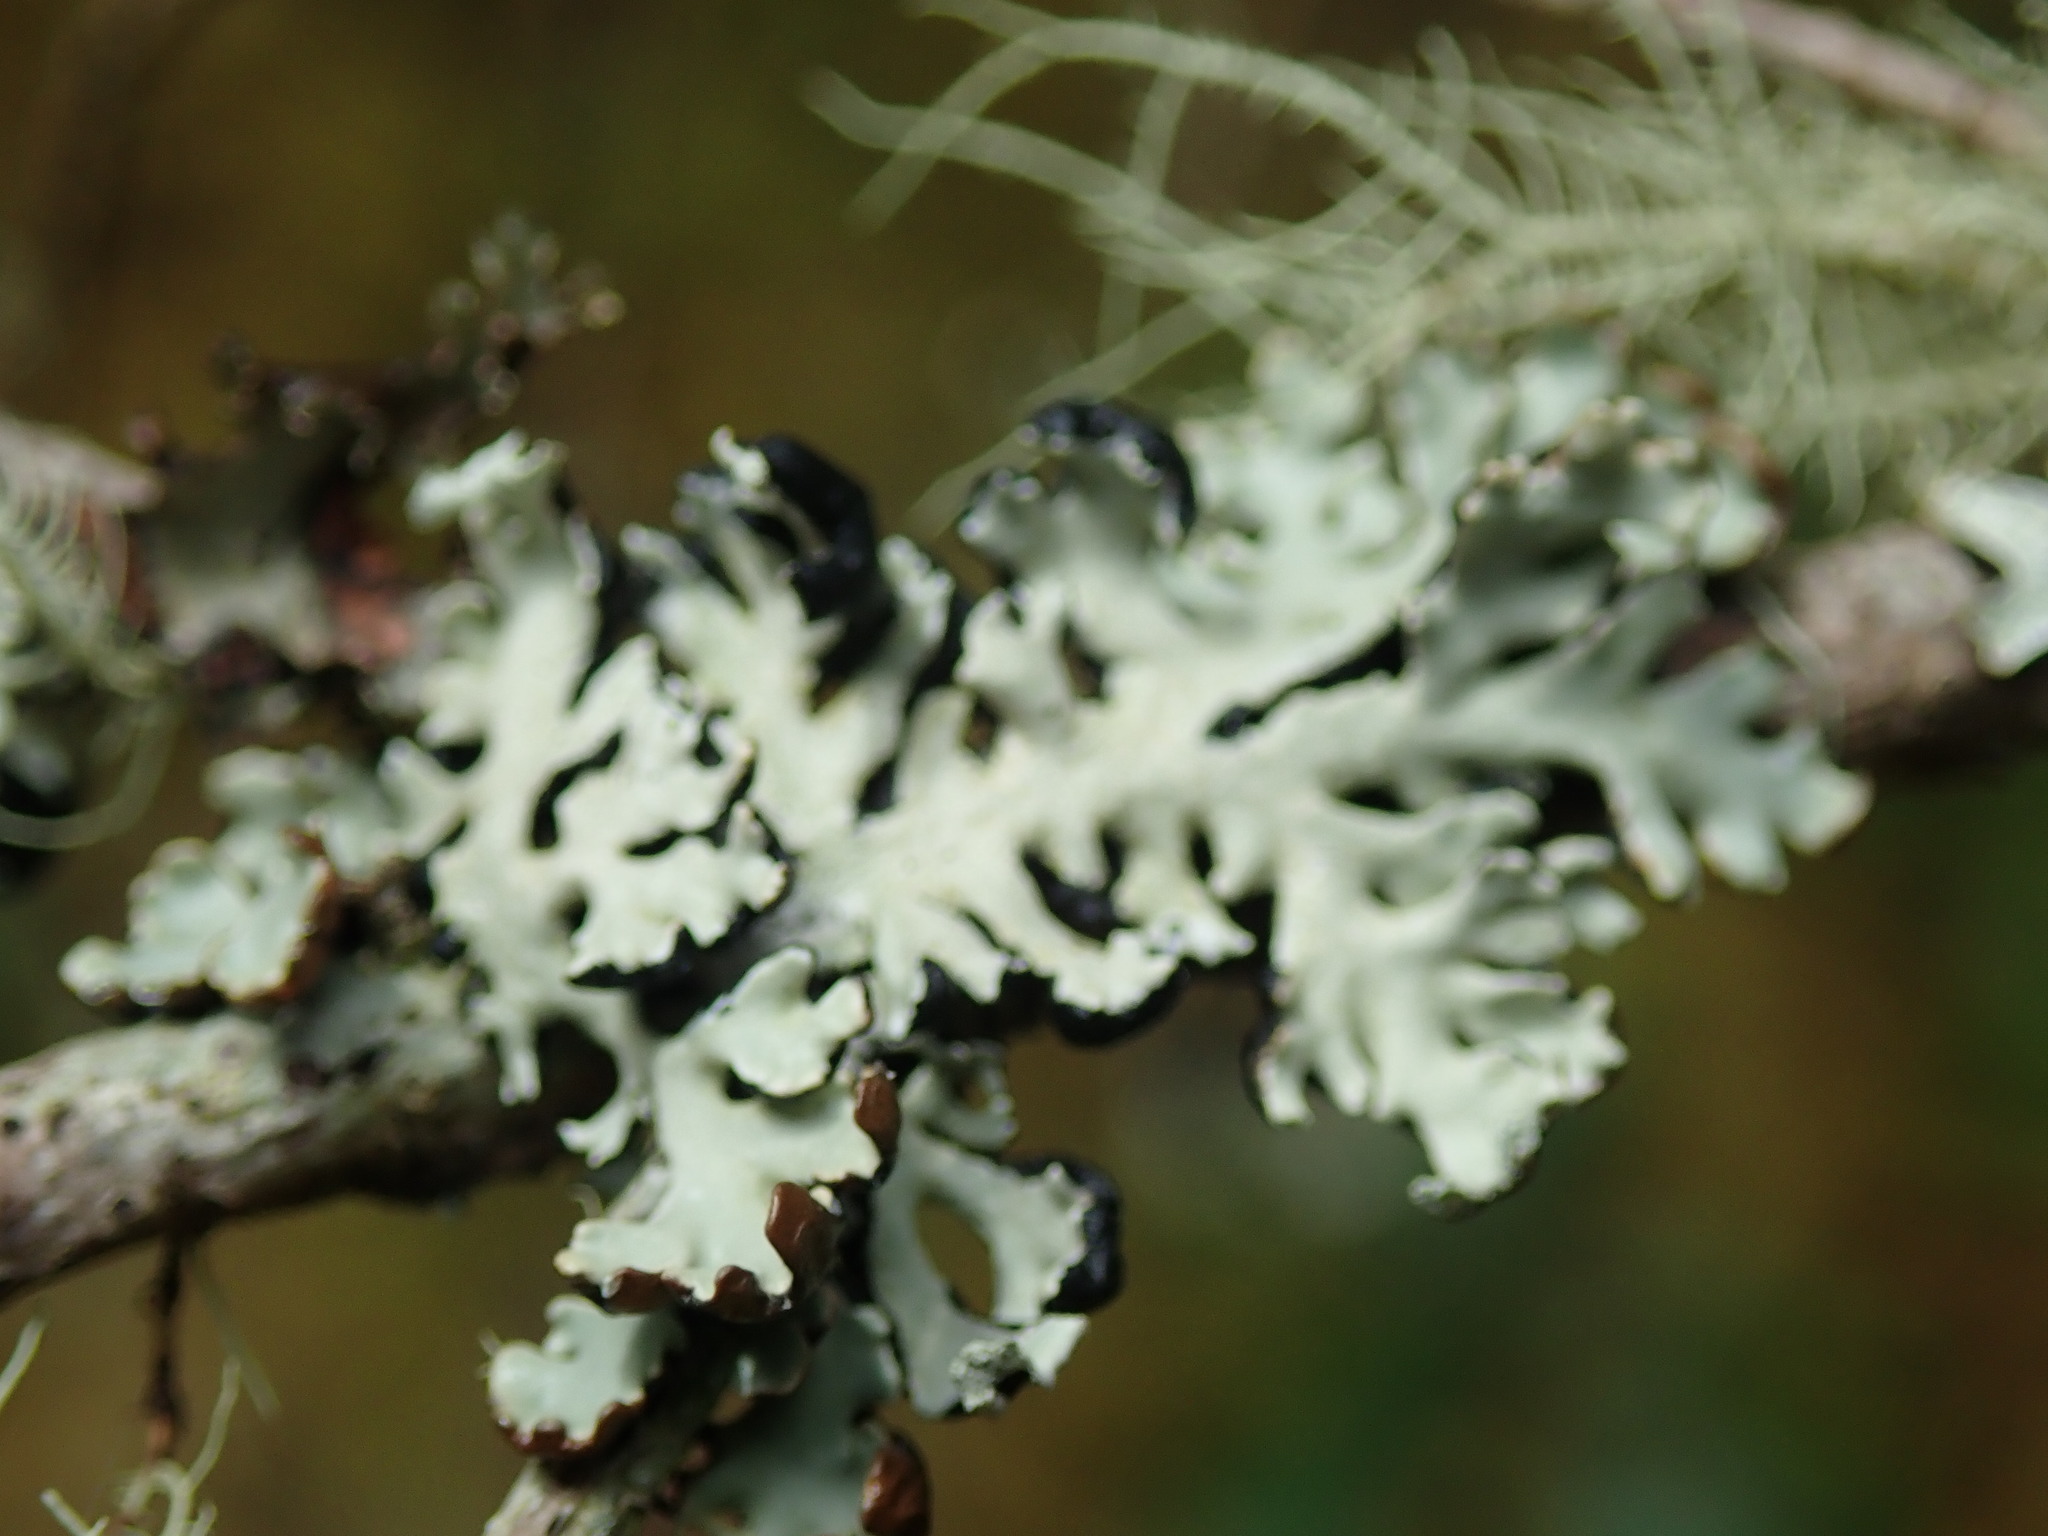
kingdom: Fungi
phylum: Ascomycota
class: Lecanoromycetes
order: Lecanorales
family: Parmeliaceae
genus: Hypogymnia
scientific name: Hypogymnia physodes
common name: Dark crottle
